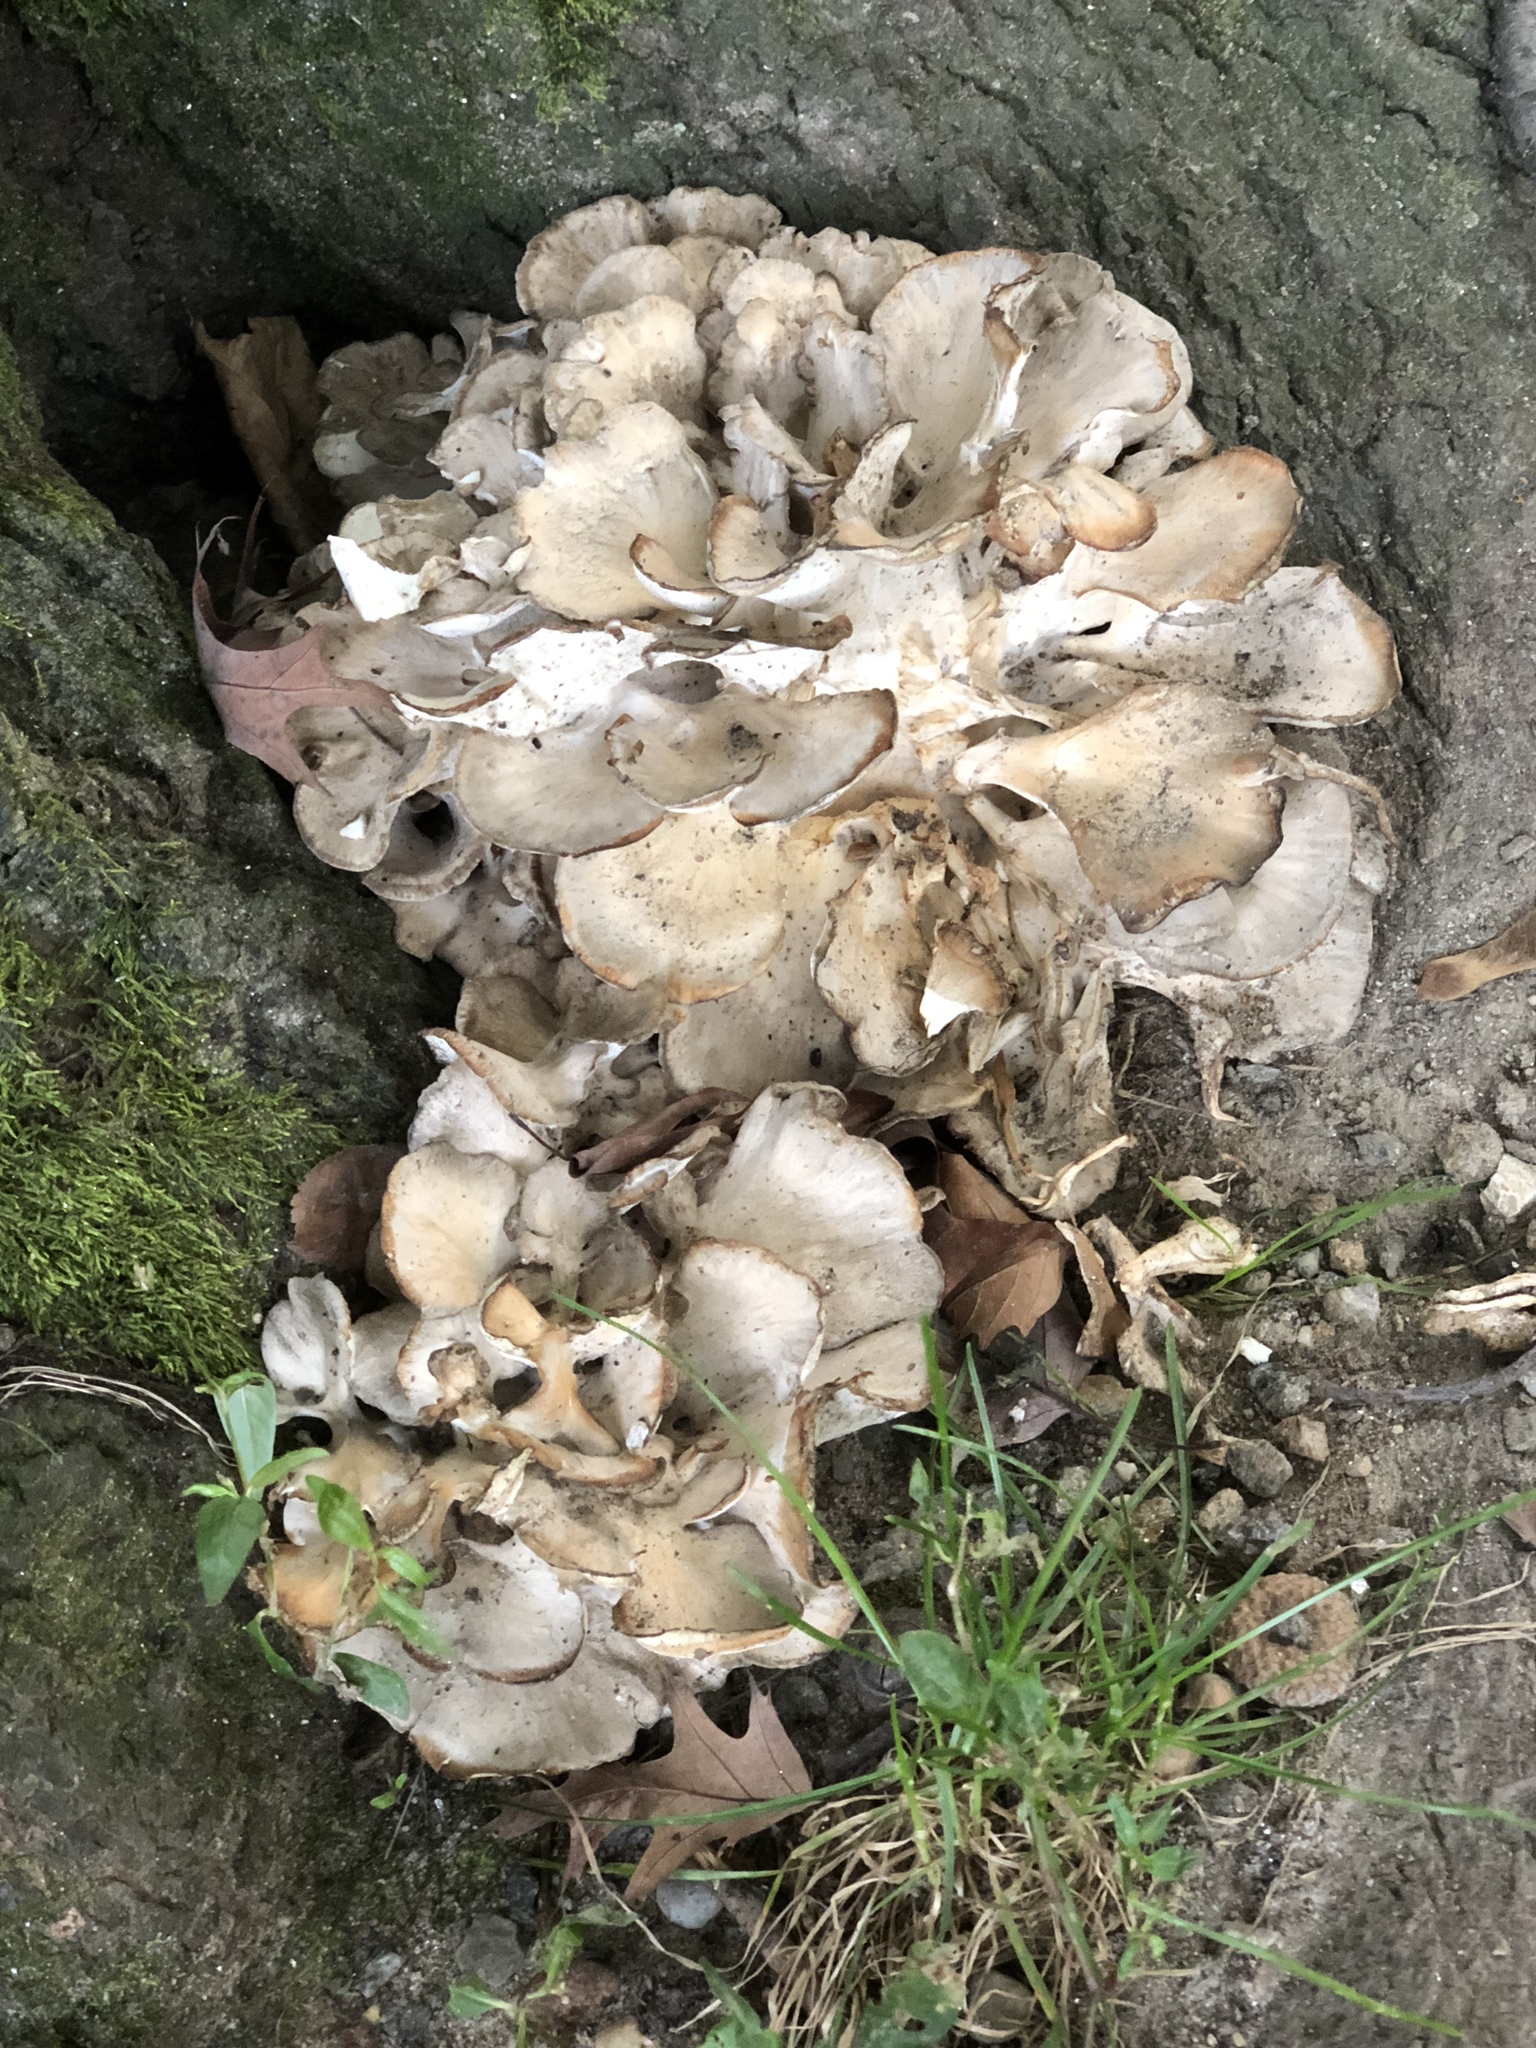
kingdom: Fungi
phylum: Basidiomycota
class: Agaricomycetes
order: Polyporales
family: Grifolaceae
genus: Grifola
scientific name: Grifola frondosa
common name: Hen of the woods
